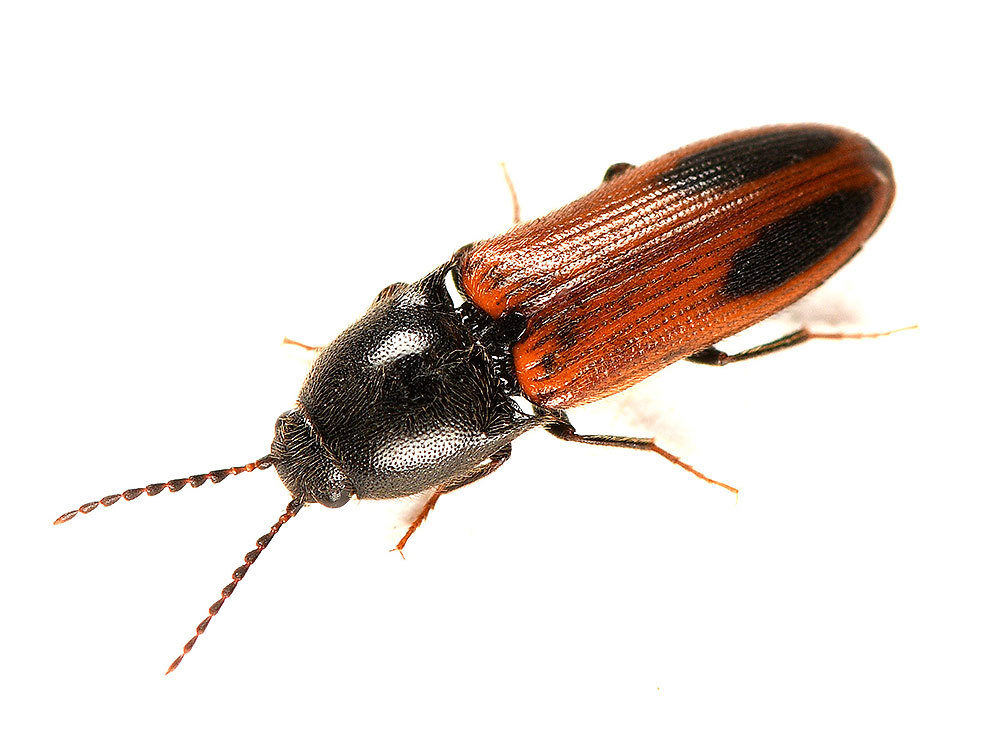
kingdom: Animalia
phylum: Arthropoda
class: Insecta
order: Coleoptera
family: Elateridae
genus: Ampedus
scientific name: Ampedus occidentalis
